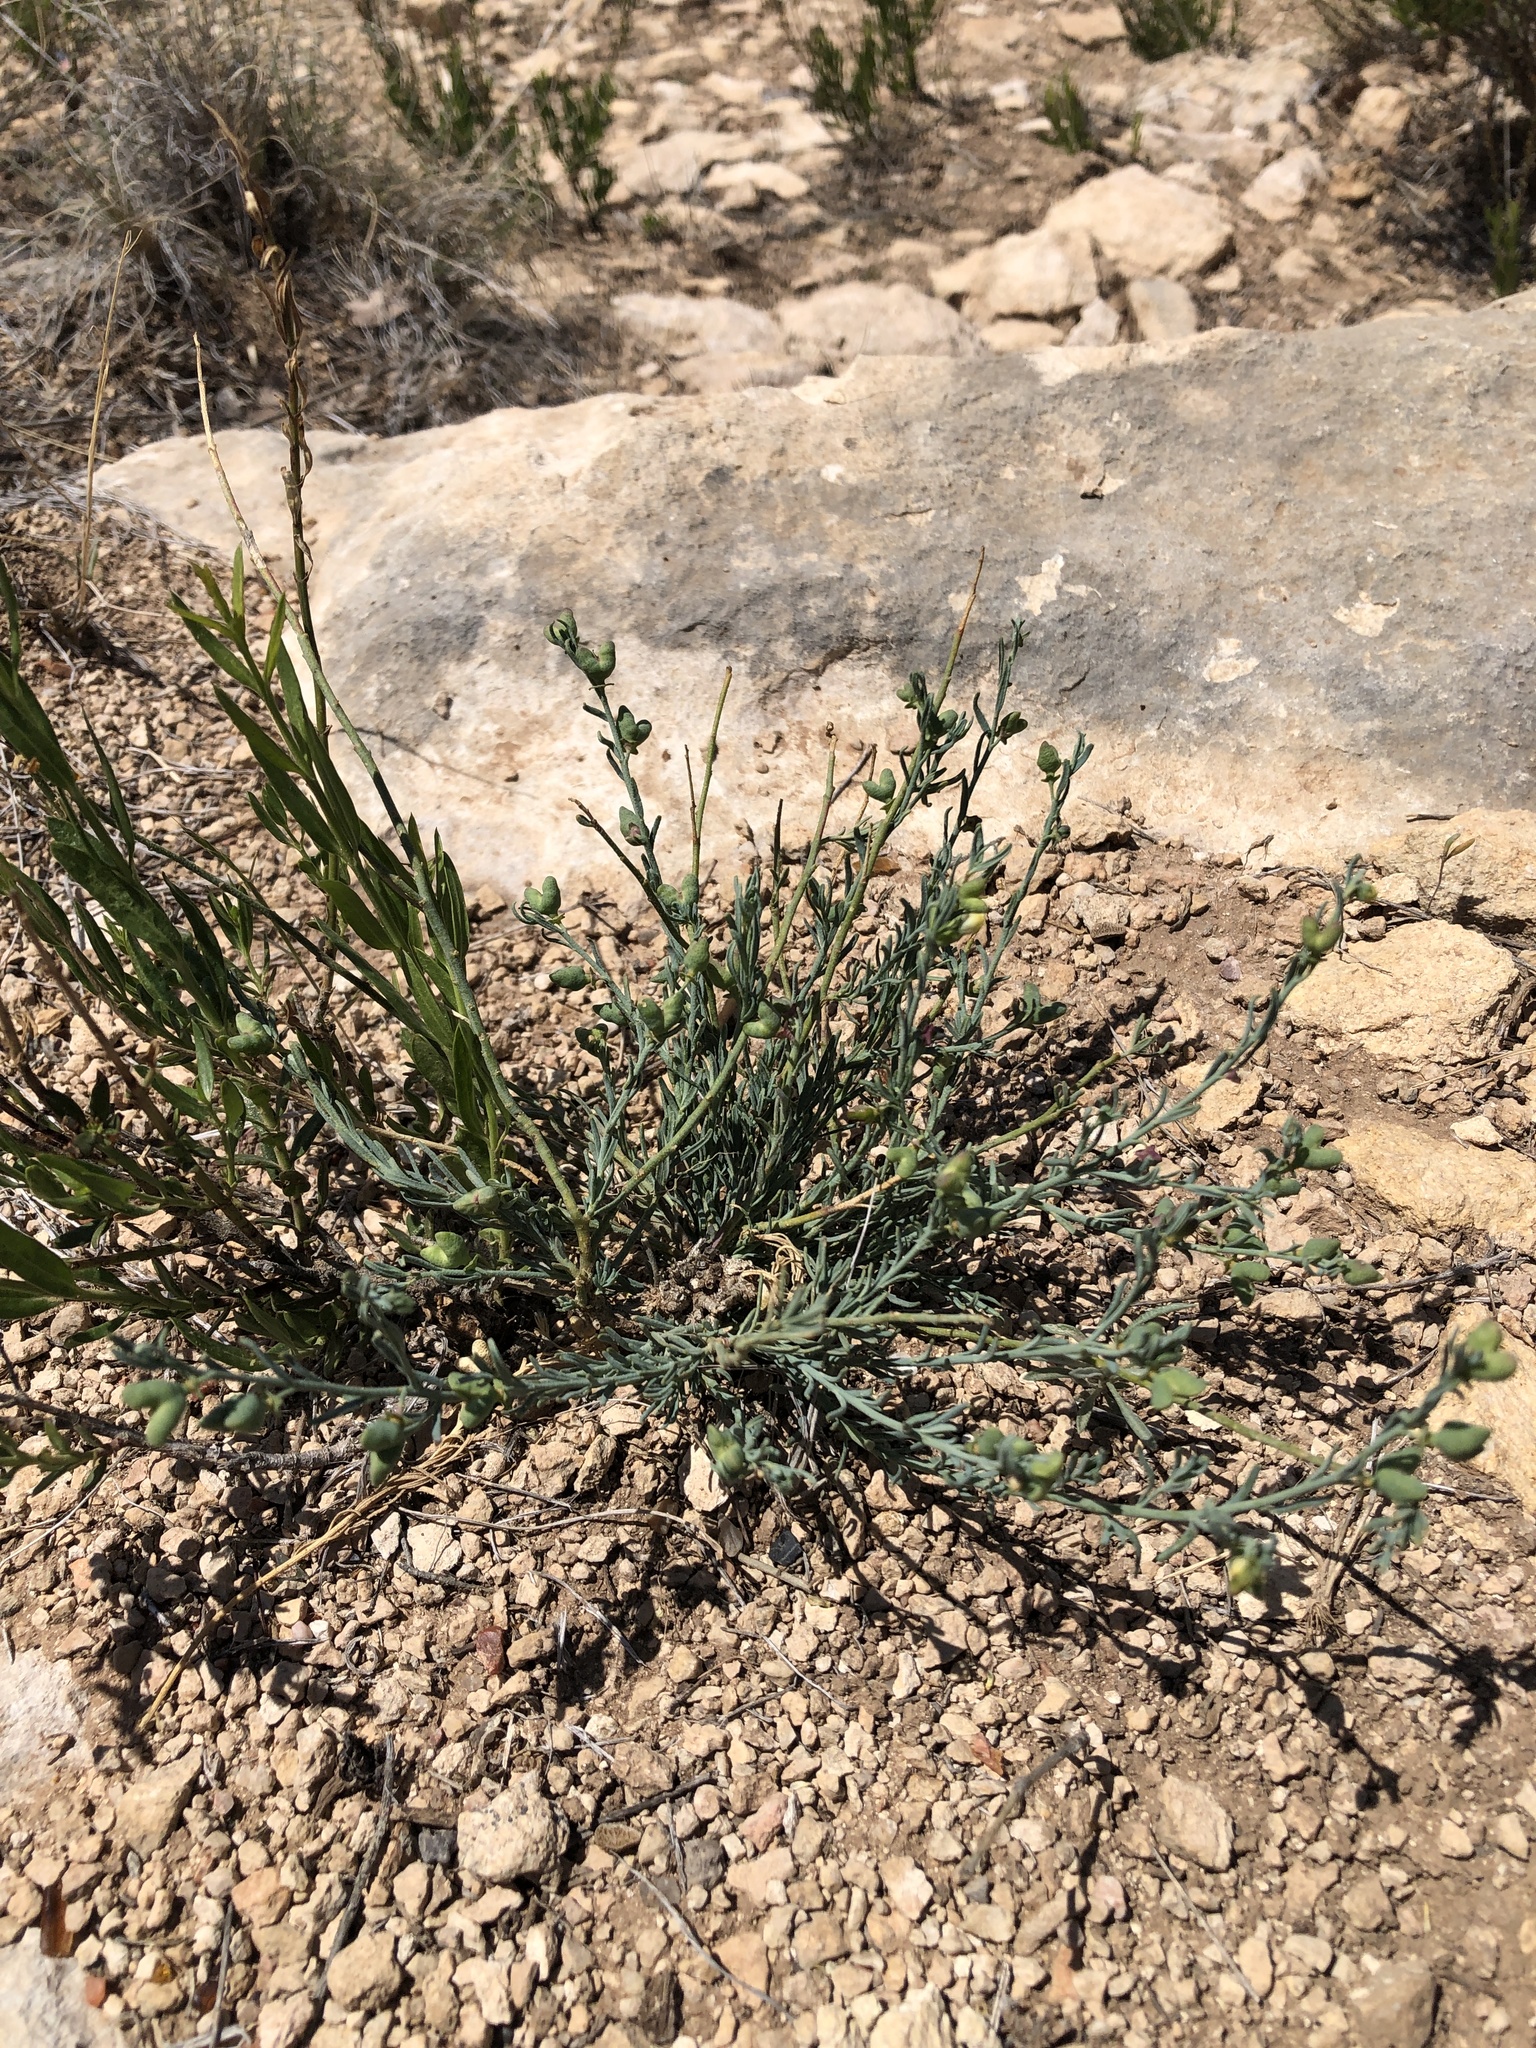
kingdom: Plantae
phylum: Tracheophyta
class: Magnoliopsida
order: Sapindales
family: Rutaceae
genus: Thamnosma
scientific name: Thamnosma texana
